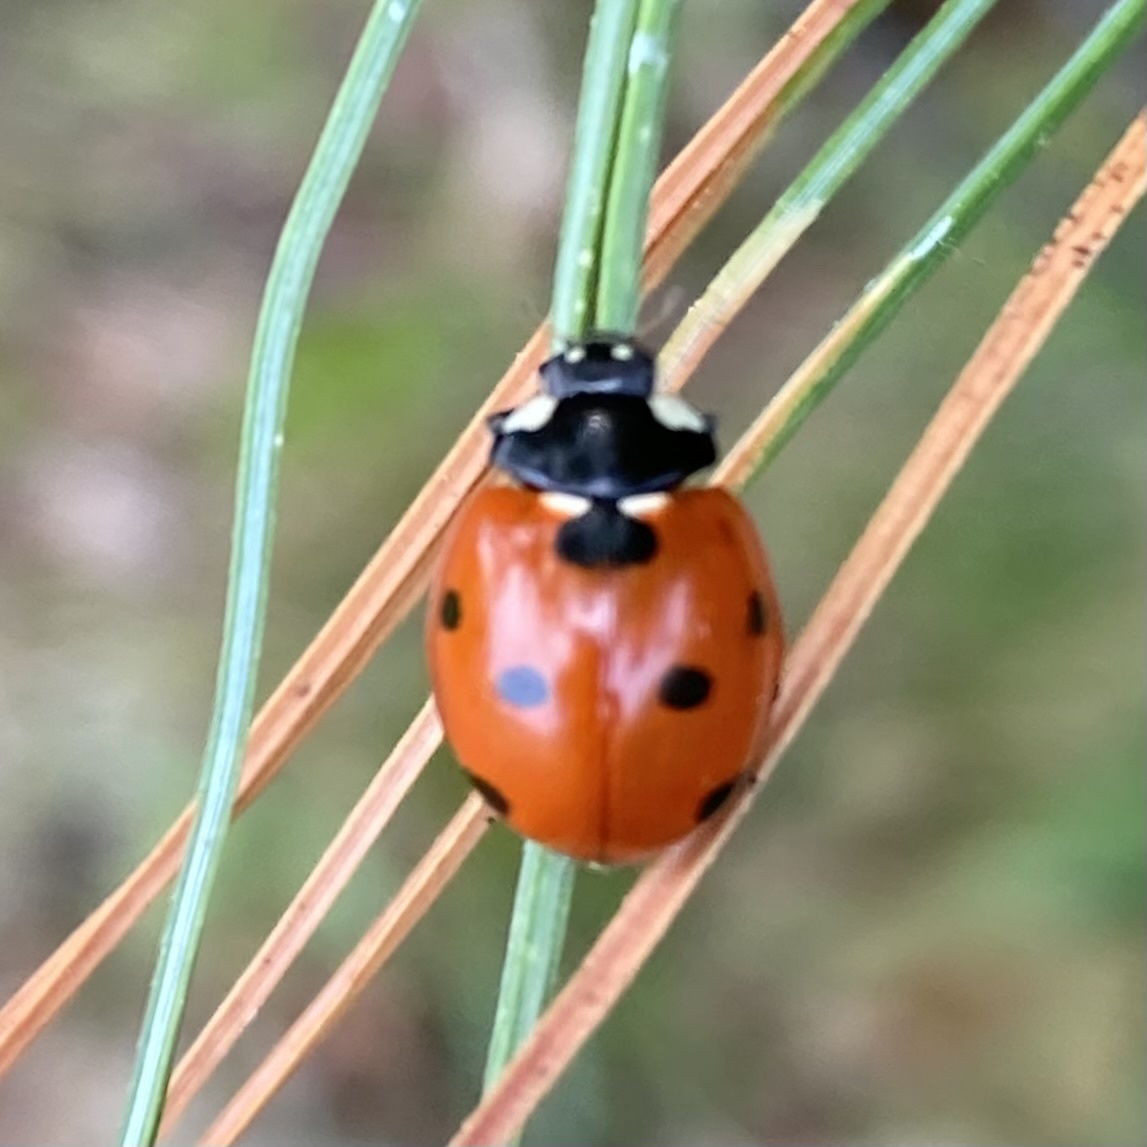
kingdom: Animalia
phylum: Arthropoda
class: Insecta
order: Coleoptera
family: Coccinellidae
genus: Coccinella
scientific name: Coccinella septempunctata
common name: Sevenspotted lady beetle
